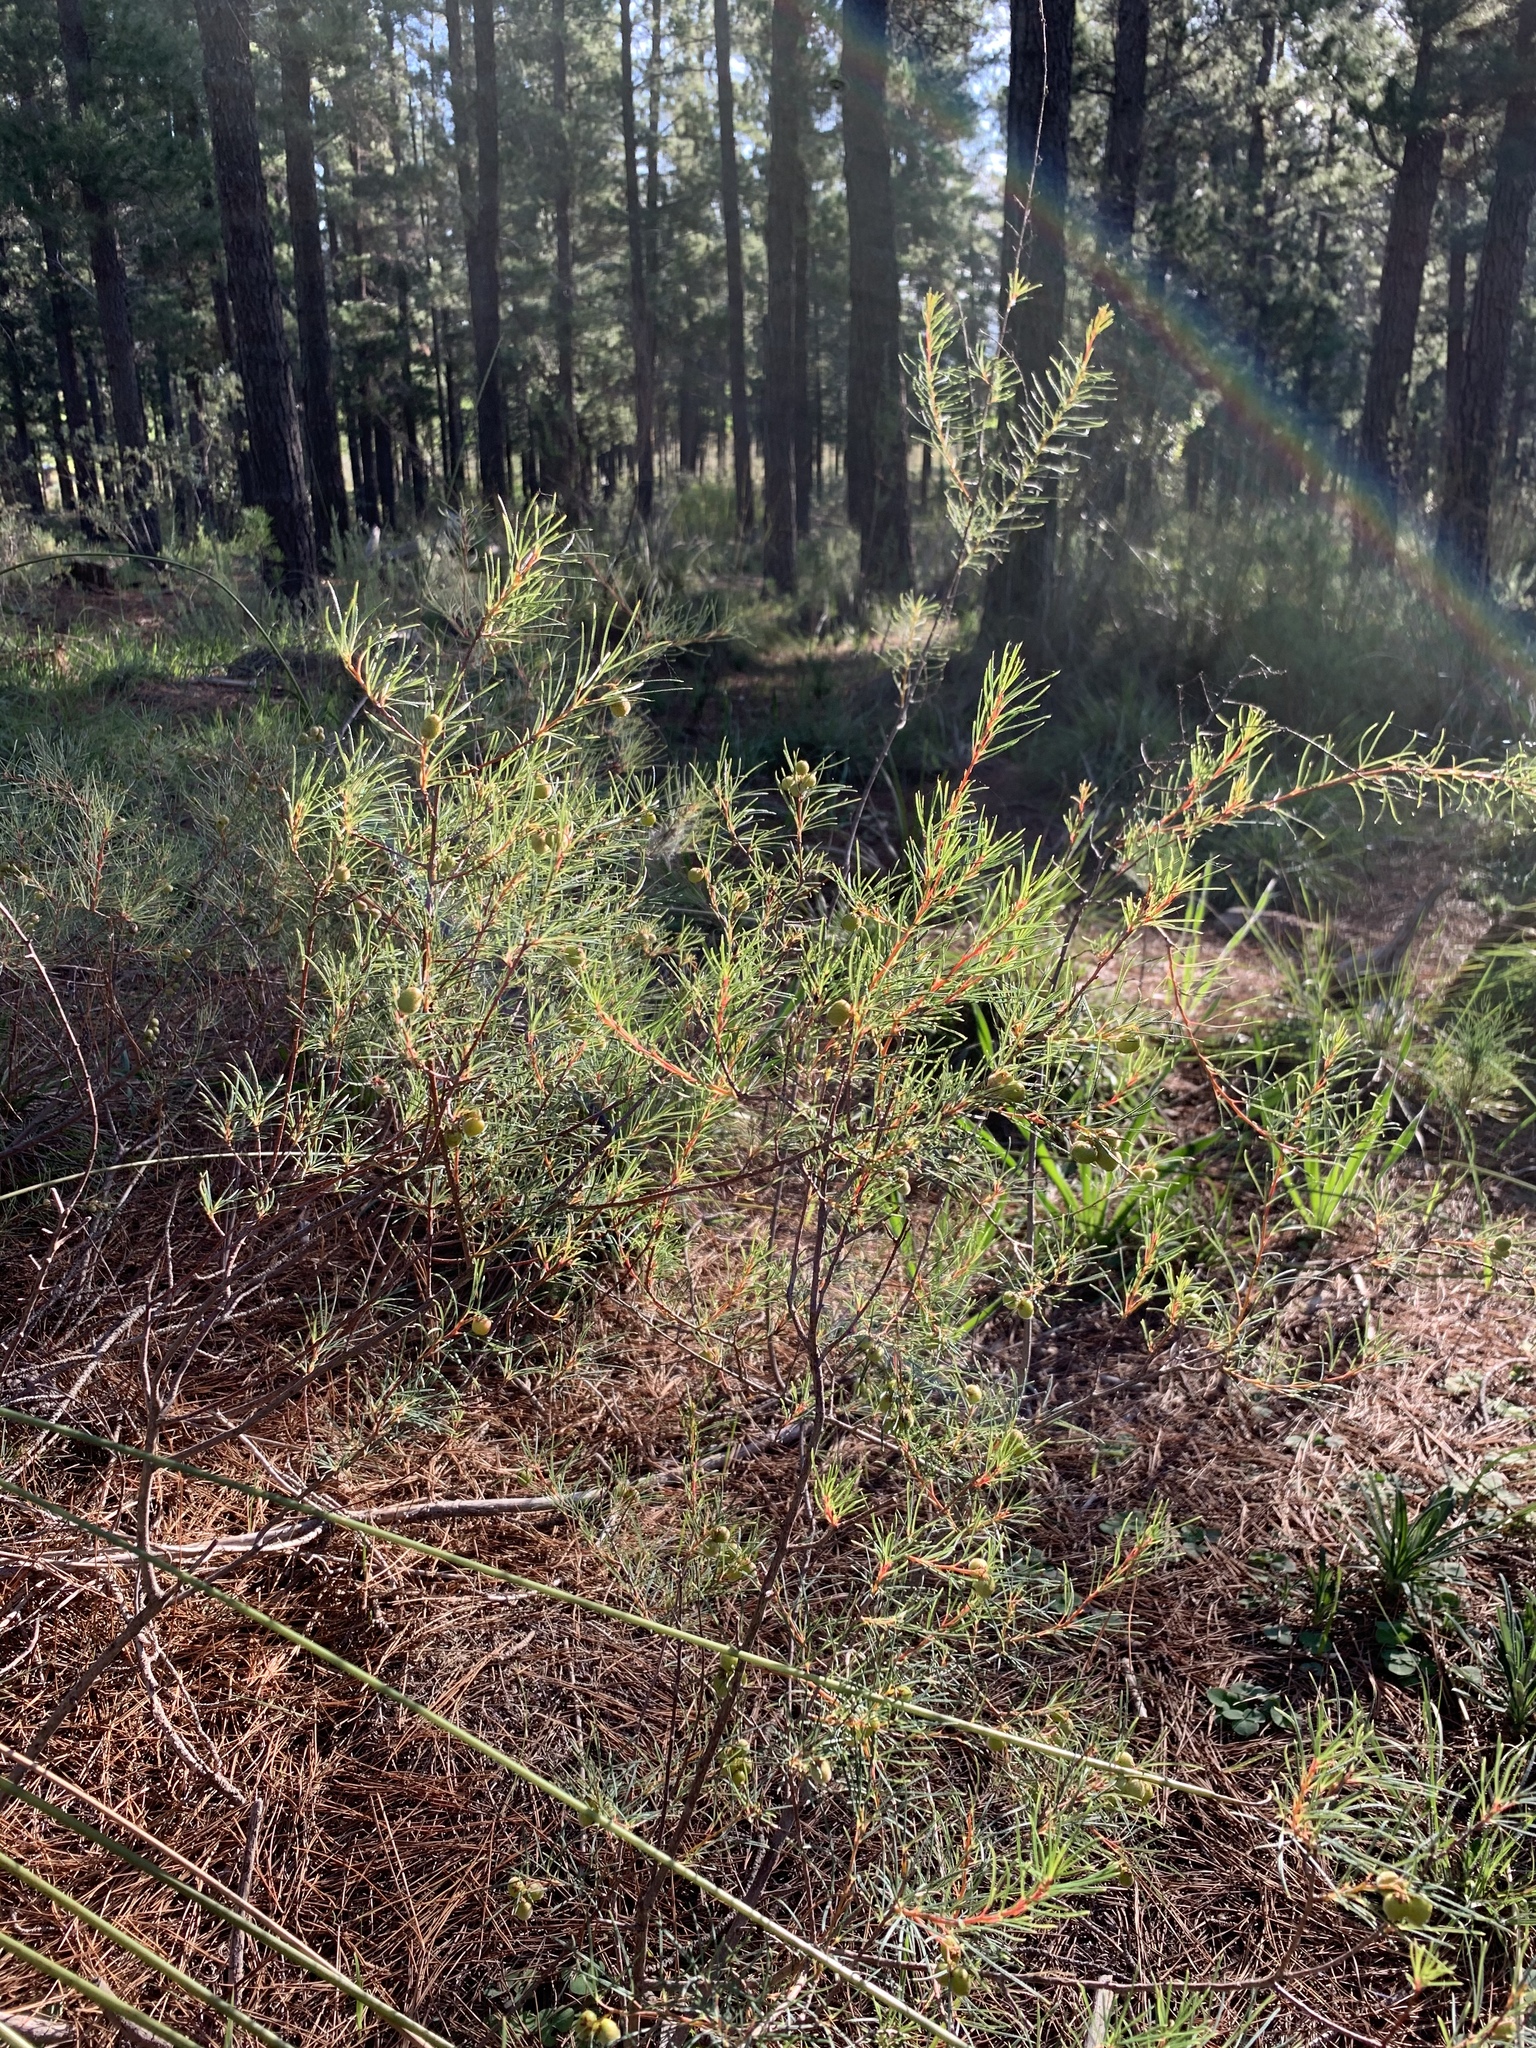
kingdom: Plantae
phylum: Tracheophyta
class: Magnoliopsida
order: Sapindales
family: Anacardiaceae
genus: Searsia
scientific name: Searsia rosmarinifolia
